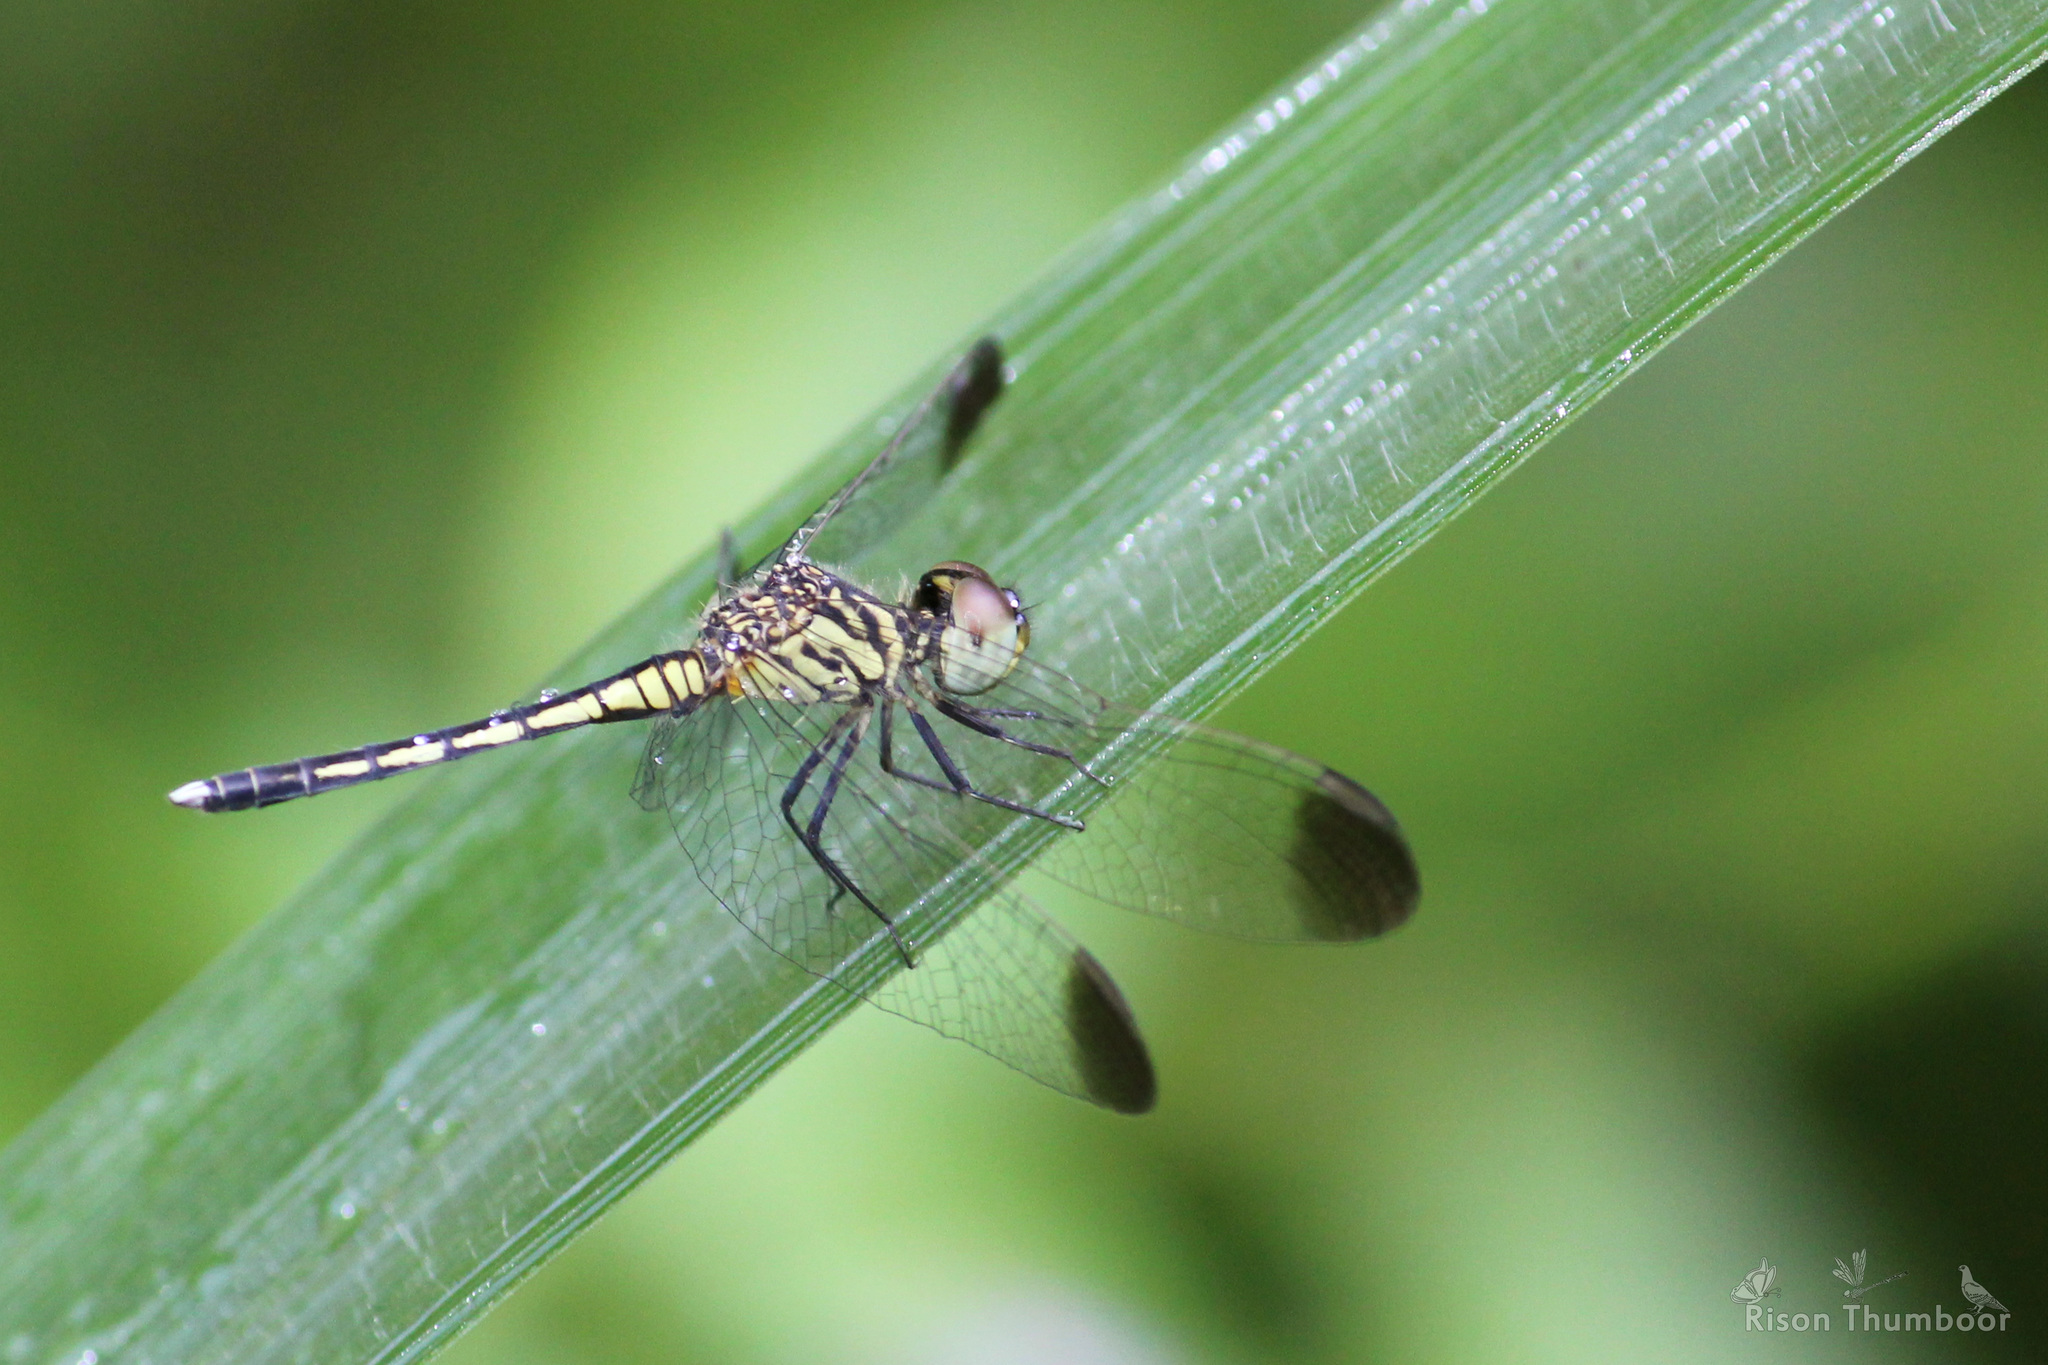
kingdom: Animalia
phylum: Arthropoda
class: Insecta
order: Odonata
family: Libellulidae
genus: Diplacodes
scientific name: Diplacodes nebulosa
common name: Black-tipped percher
